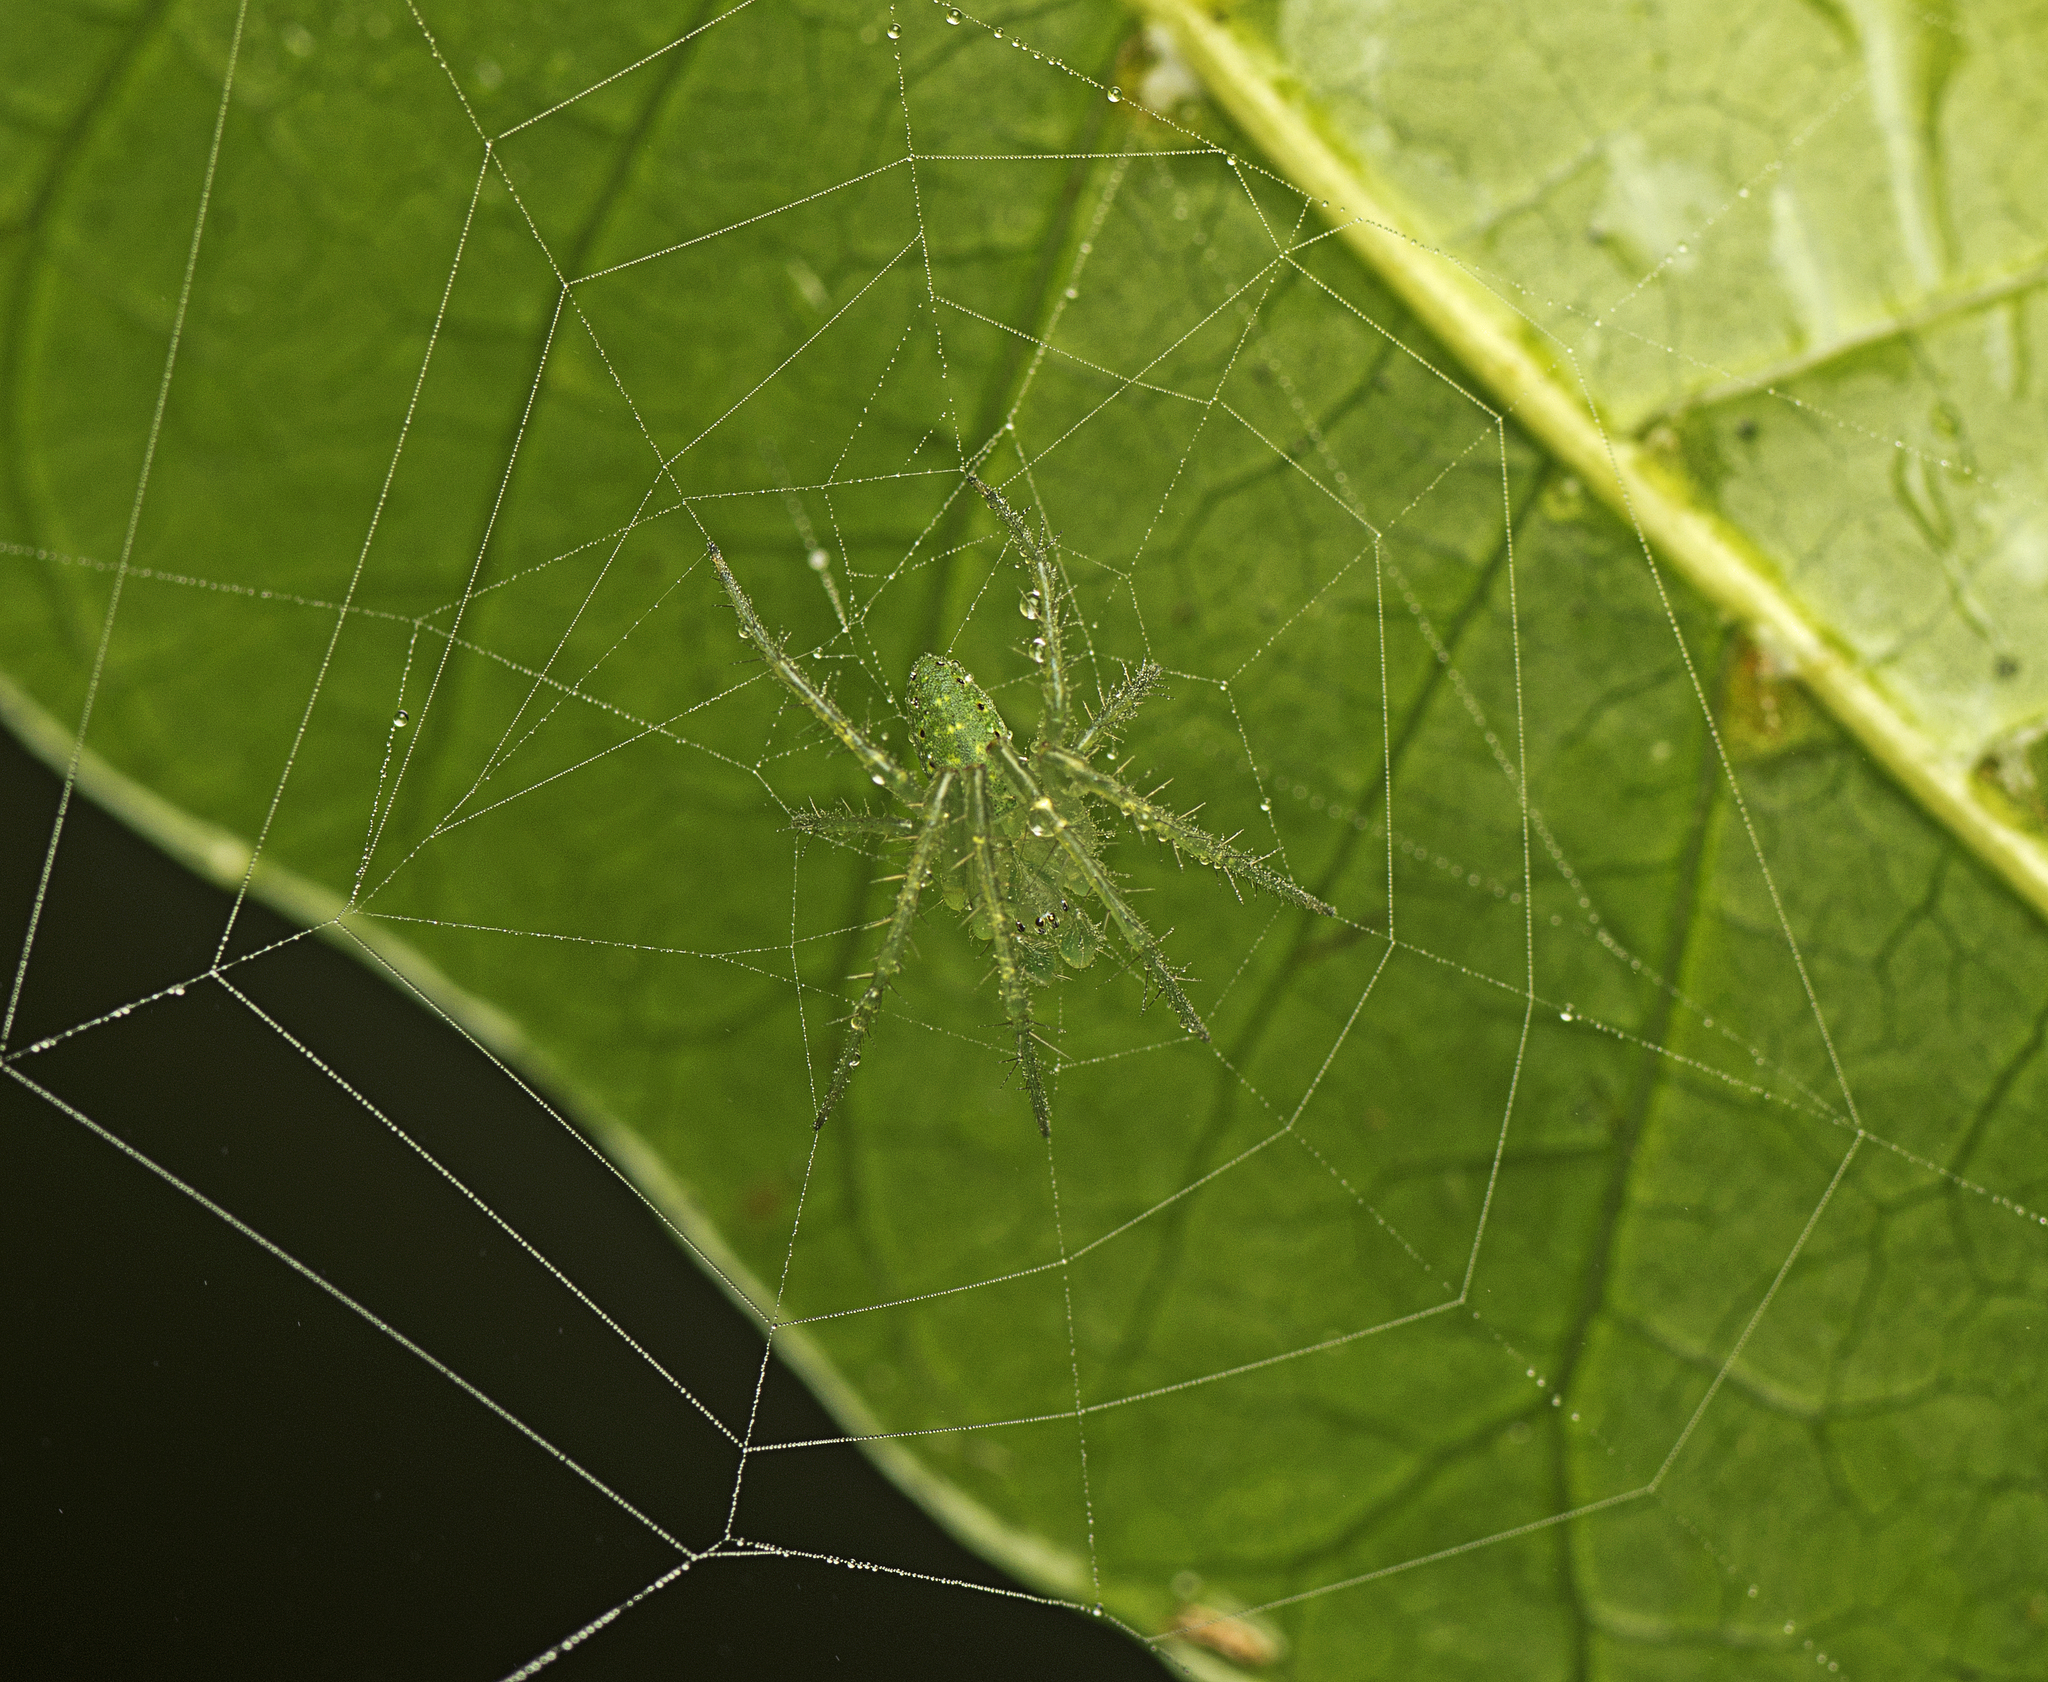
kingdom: Animalia
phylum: Arthropoda
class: Arachnida
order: Araneae
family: Araneidae
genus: Araneus
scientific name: Araneus talipedatus
